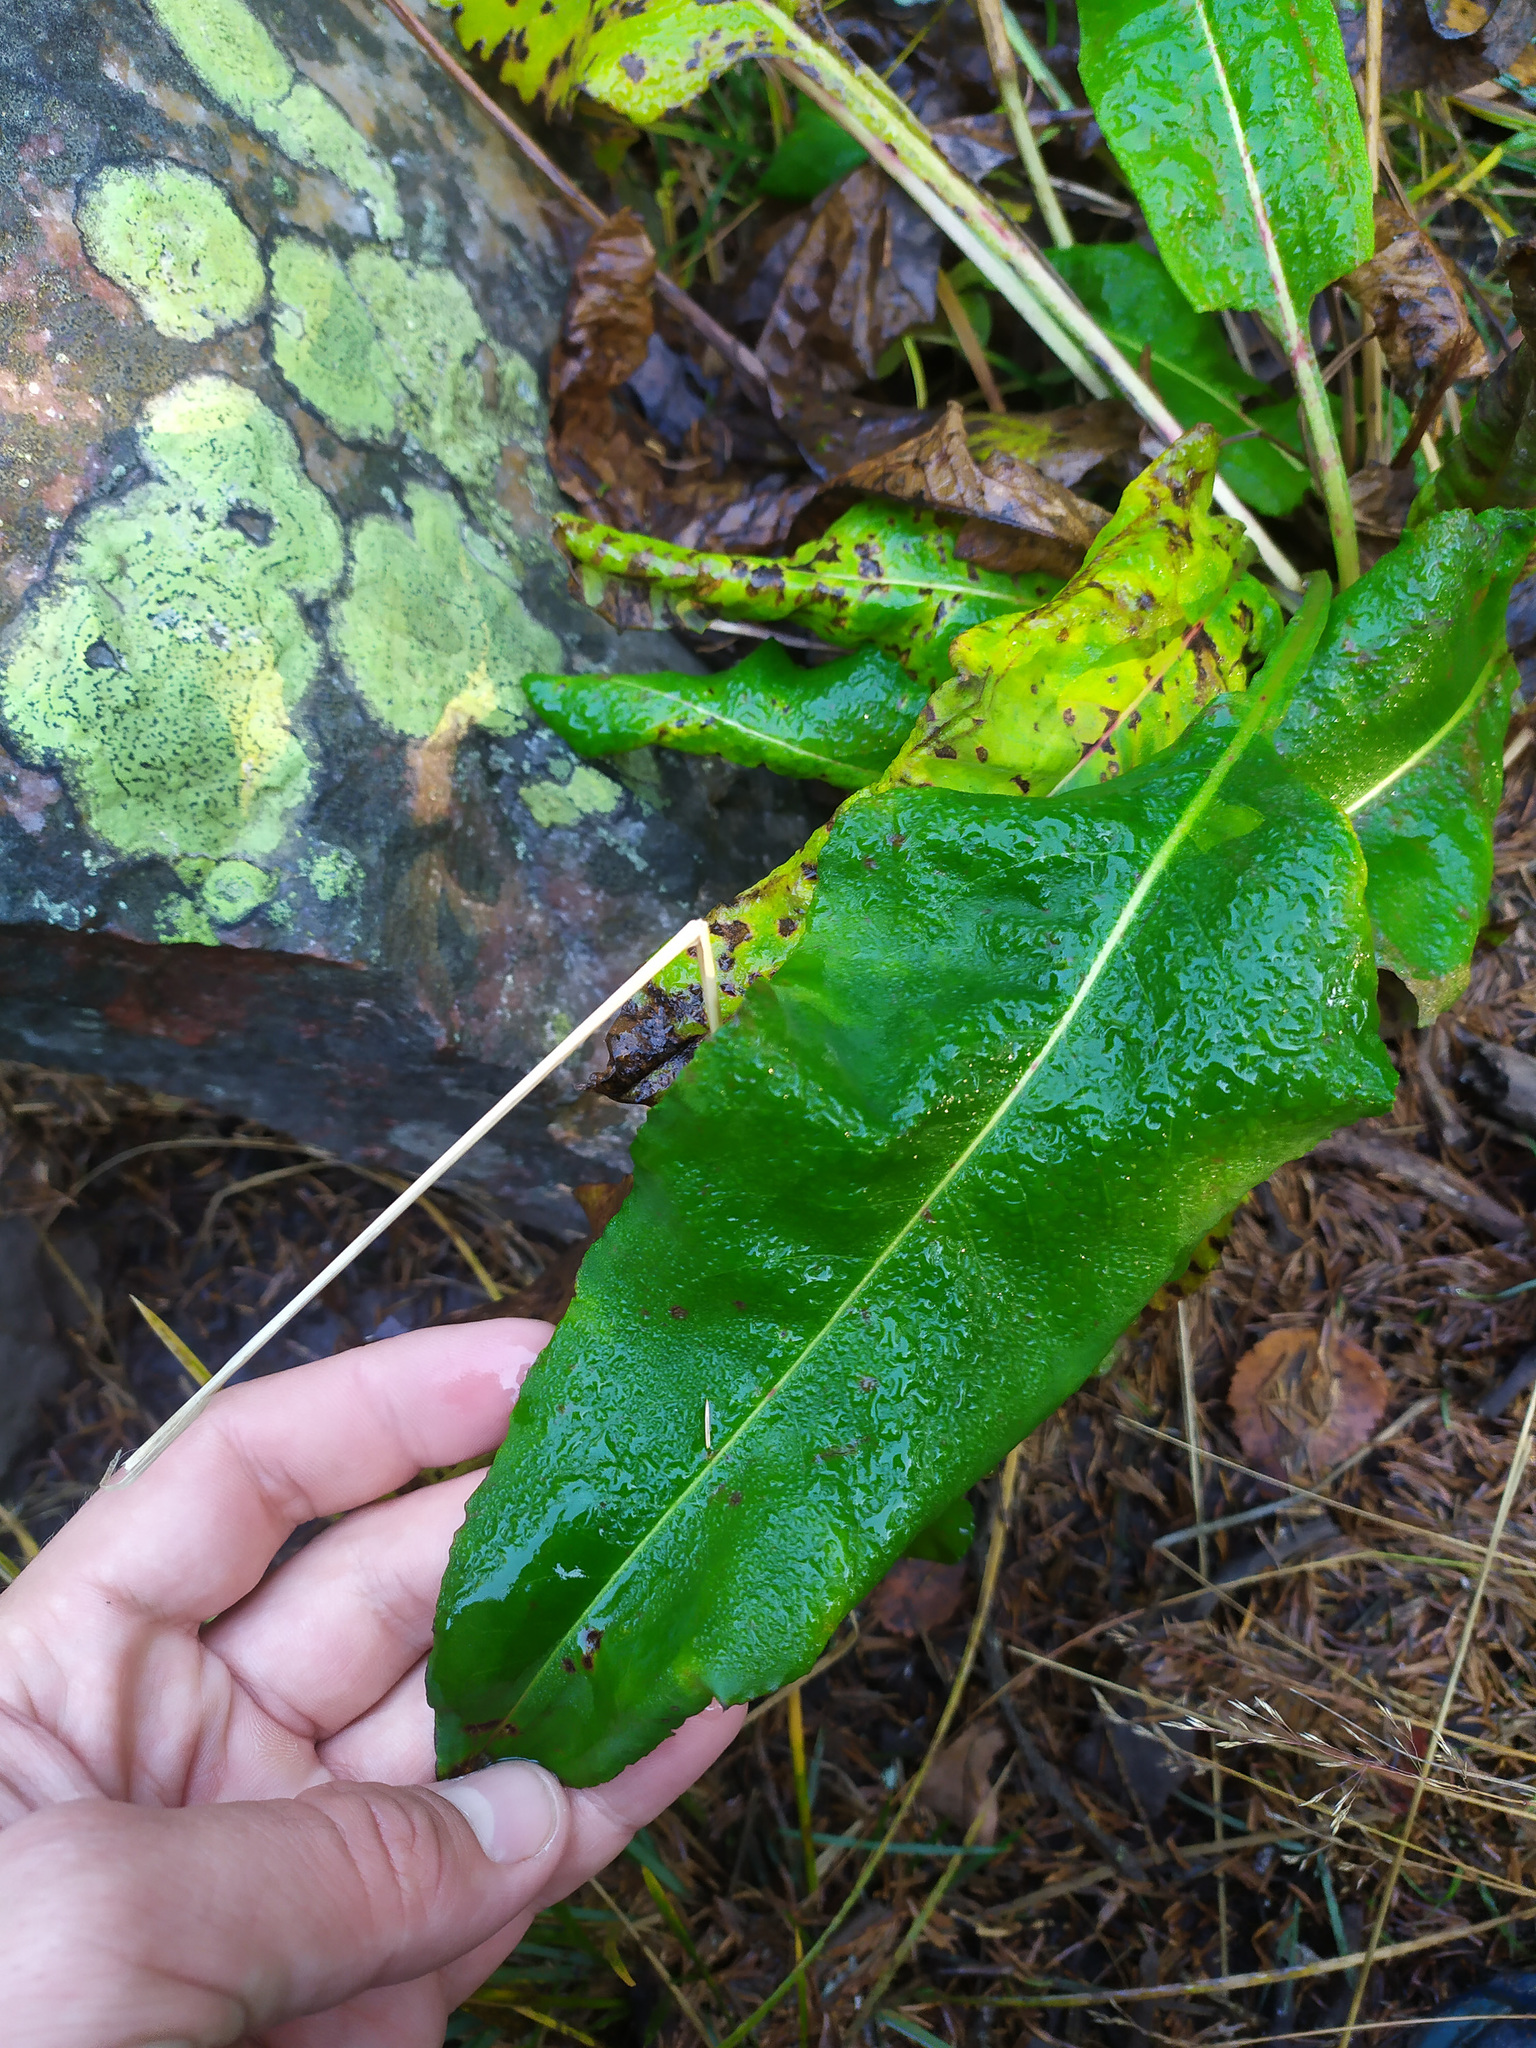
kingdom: Plantae
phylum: Tracheophyta
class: Magnoliopsida
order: Caryophyllales
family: Polygonaceae
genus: Bistorta
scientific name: Bistorta officinalis
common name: Common bistort
